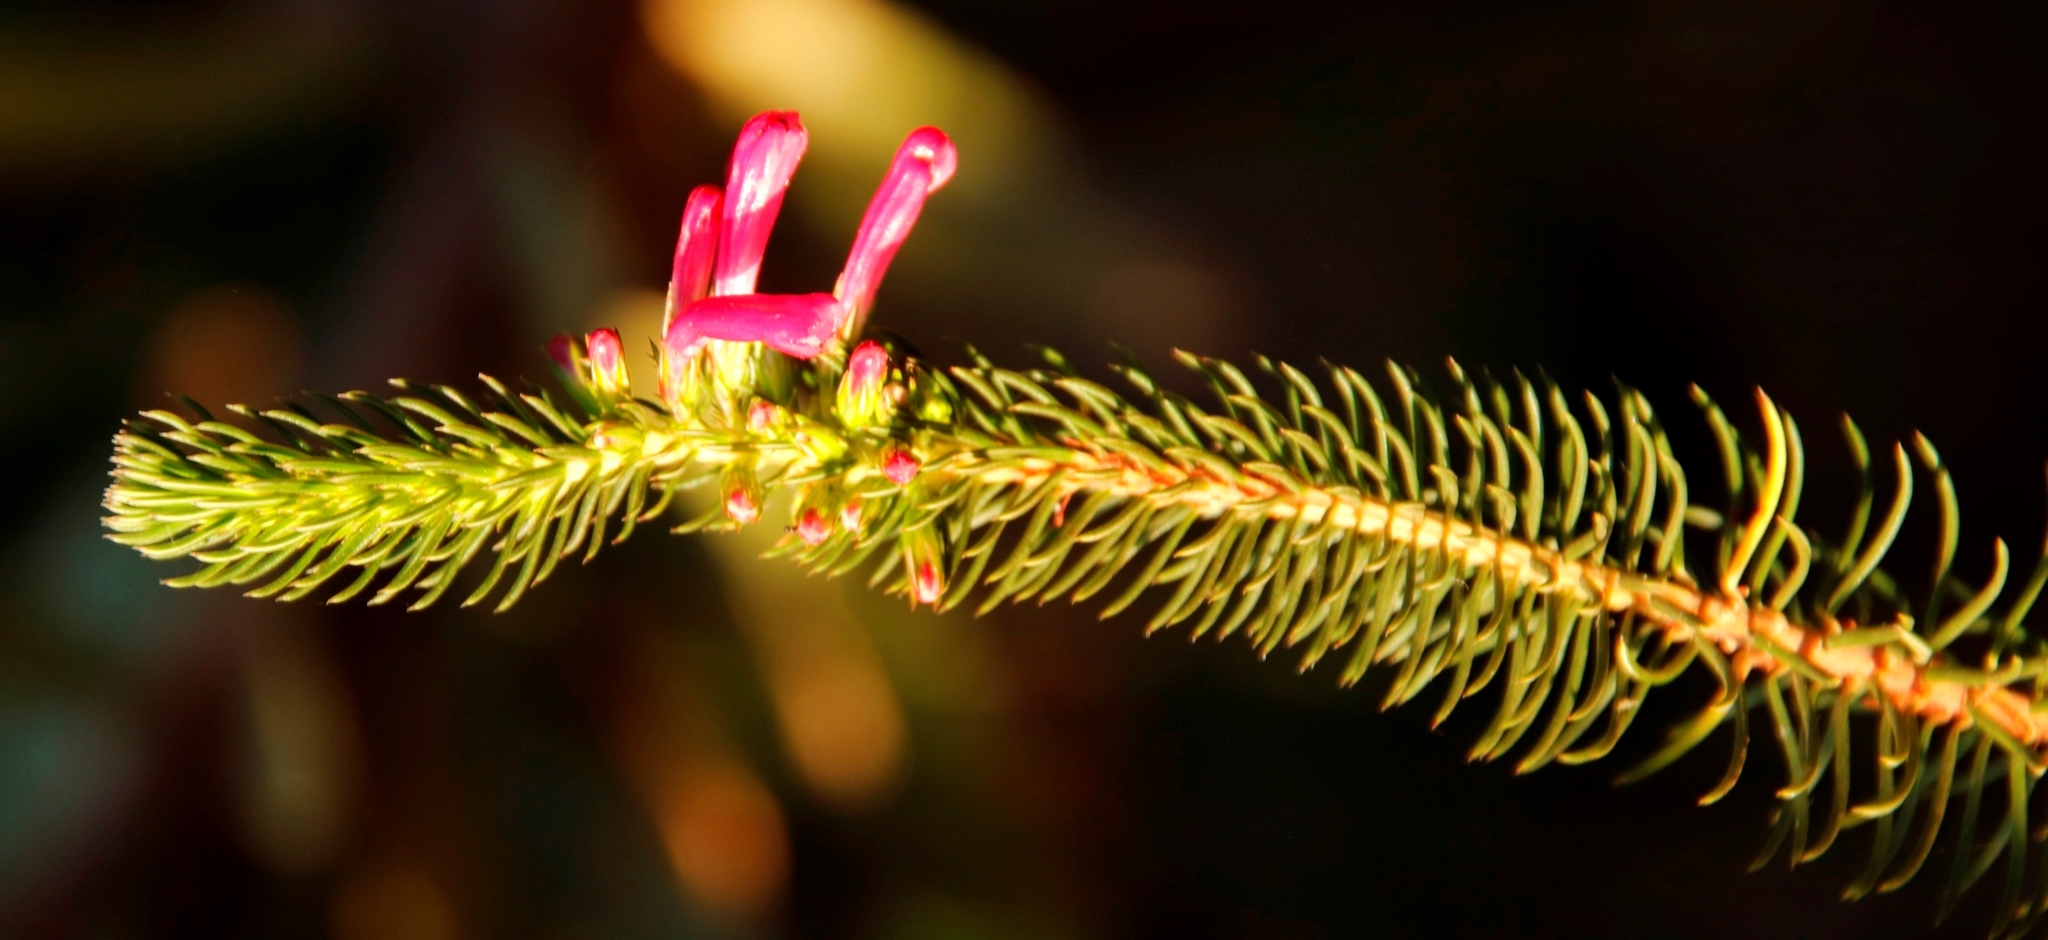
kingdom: Plantae
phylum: Tracheophyta
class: Magnoliopsida
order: Ericales
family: Ericaceae
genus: Erica
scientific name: Erica abietina
